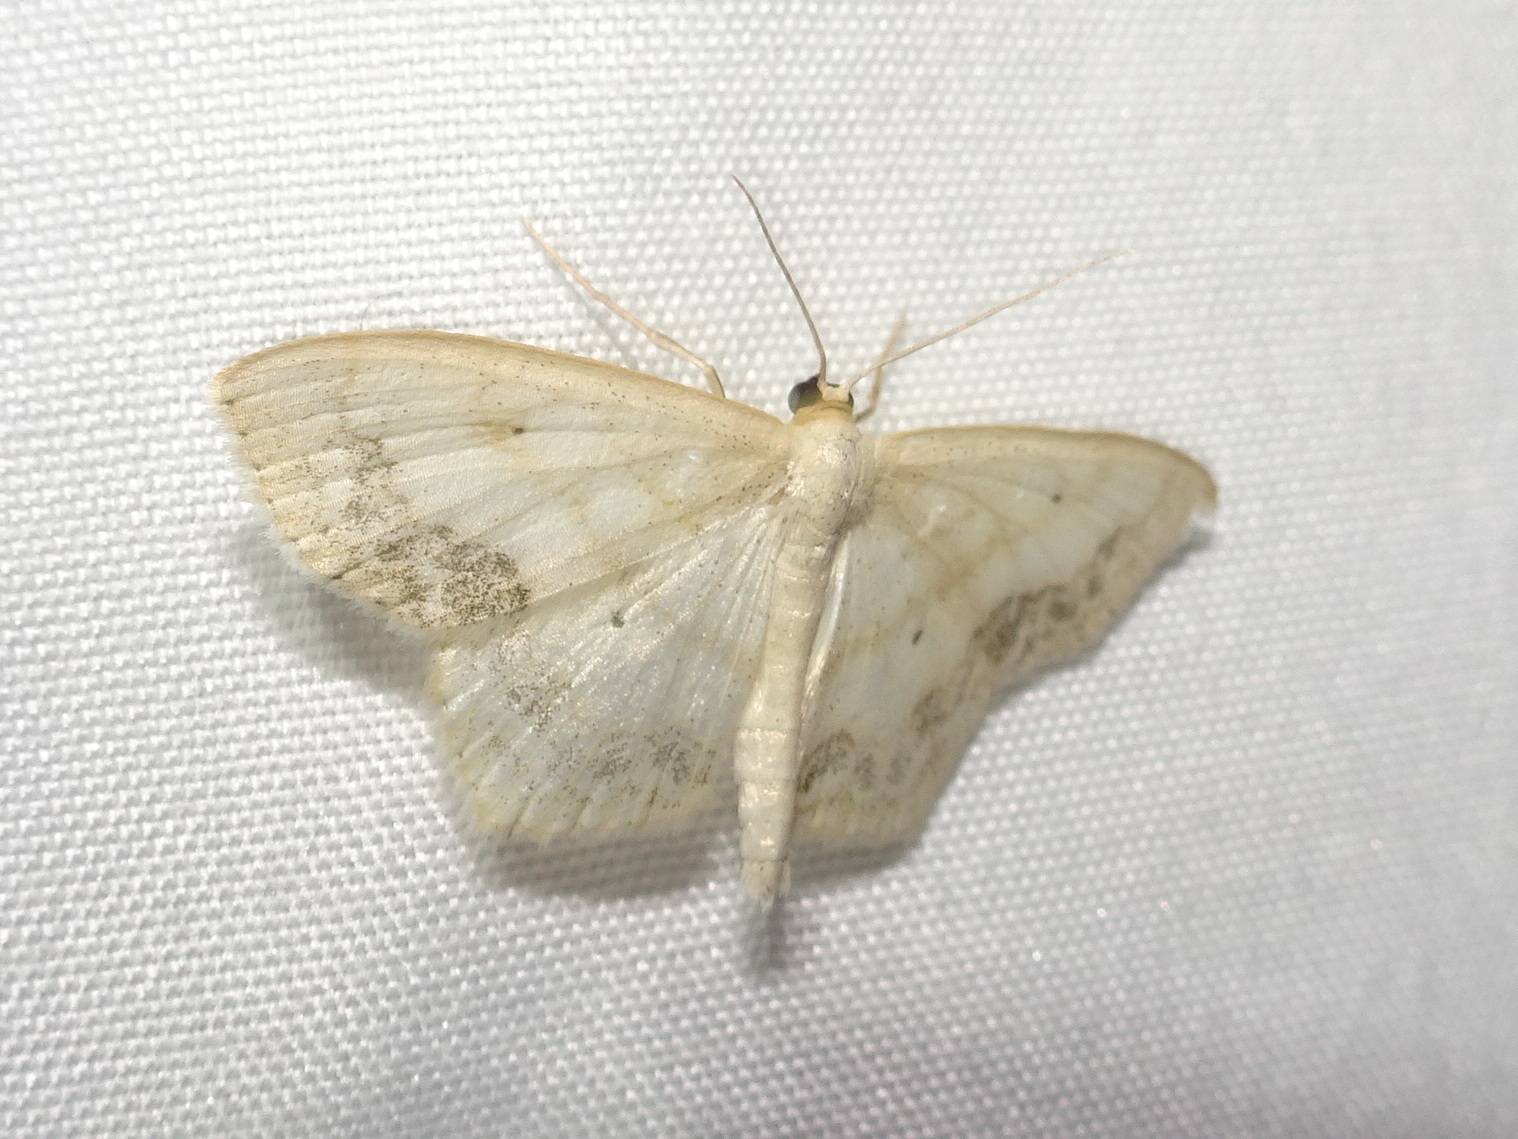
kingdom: Animalia
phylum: Arthropoda
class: Insecta
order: Lepidoptera
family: Geometridae
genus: Scopula
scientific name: Scopula limboundata
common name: Large lace border
